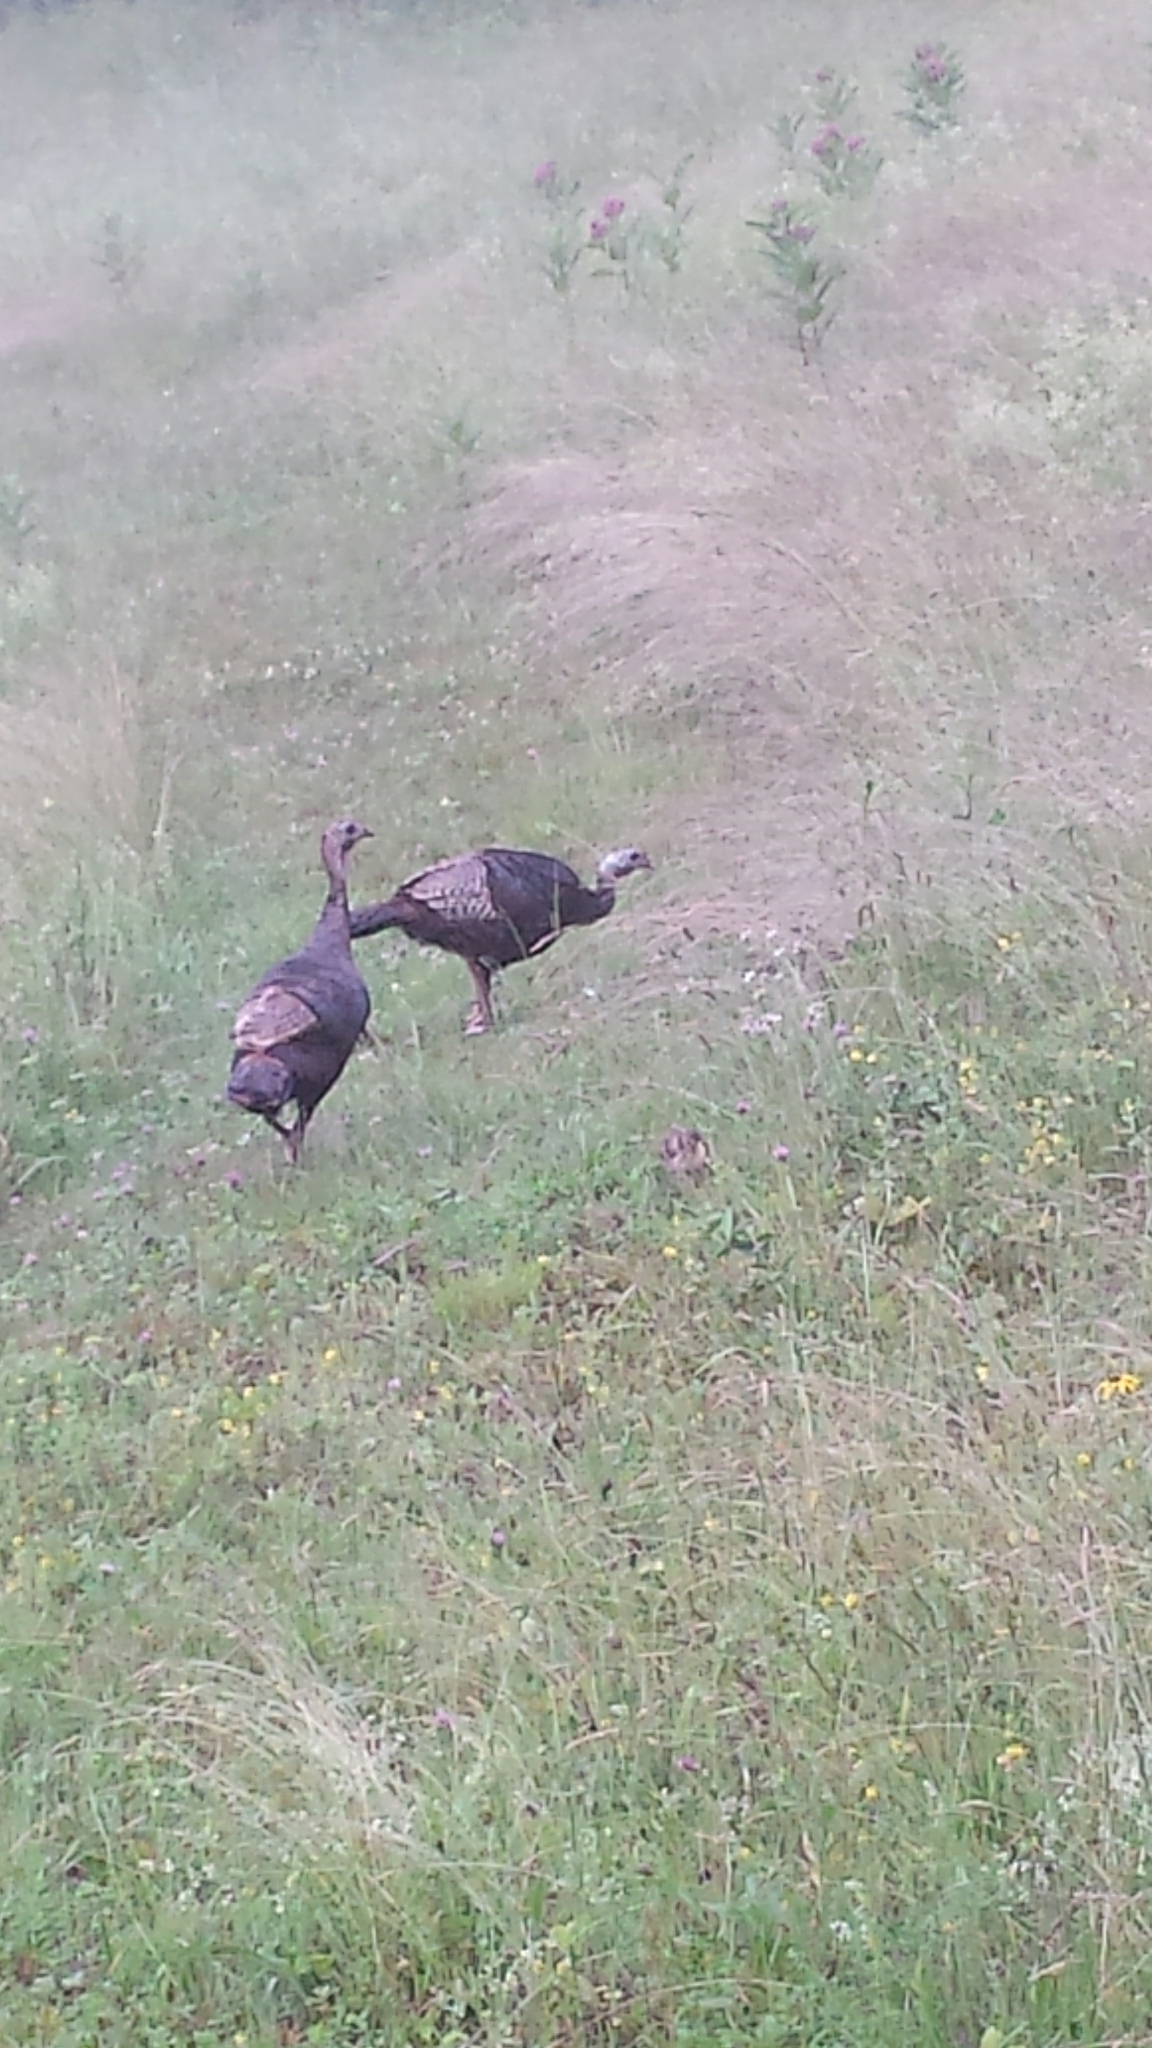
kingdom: Animalia
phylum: Chordata
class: Aves
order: Galliformes
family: Phasianidae
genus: Meleagris
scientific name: Meleagris gallopavo
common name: Wild turkey
